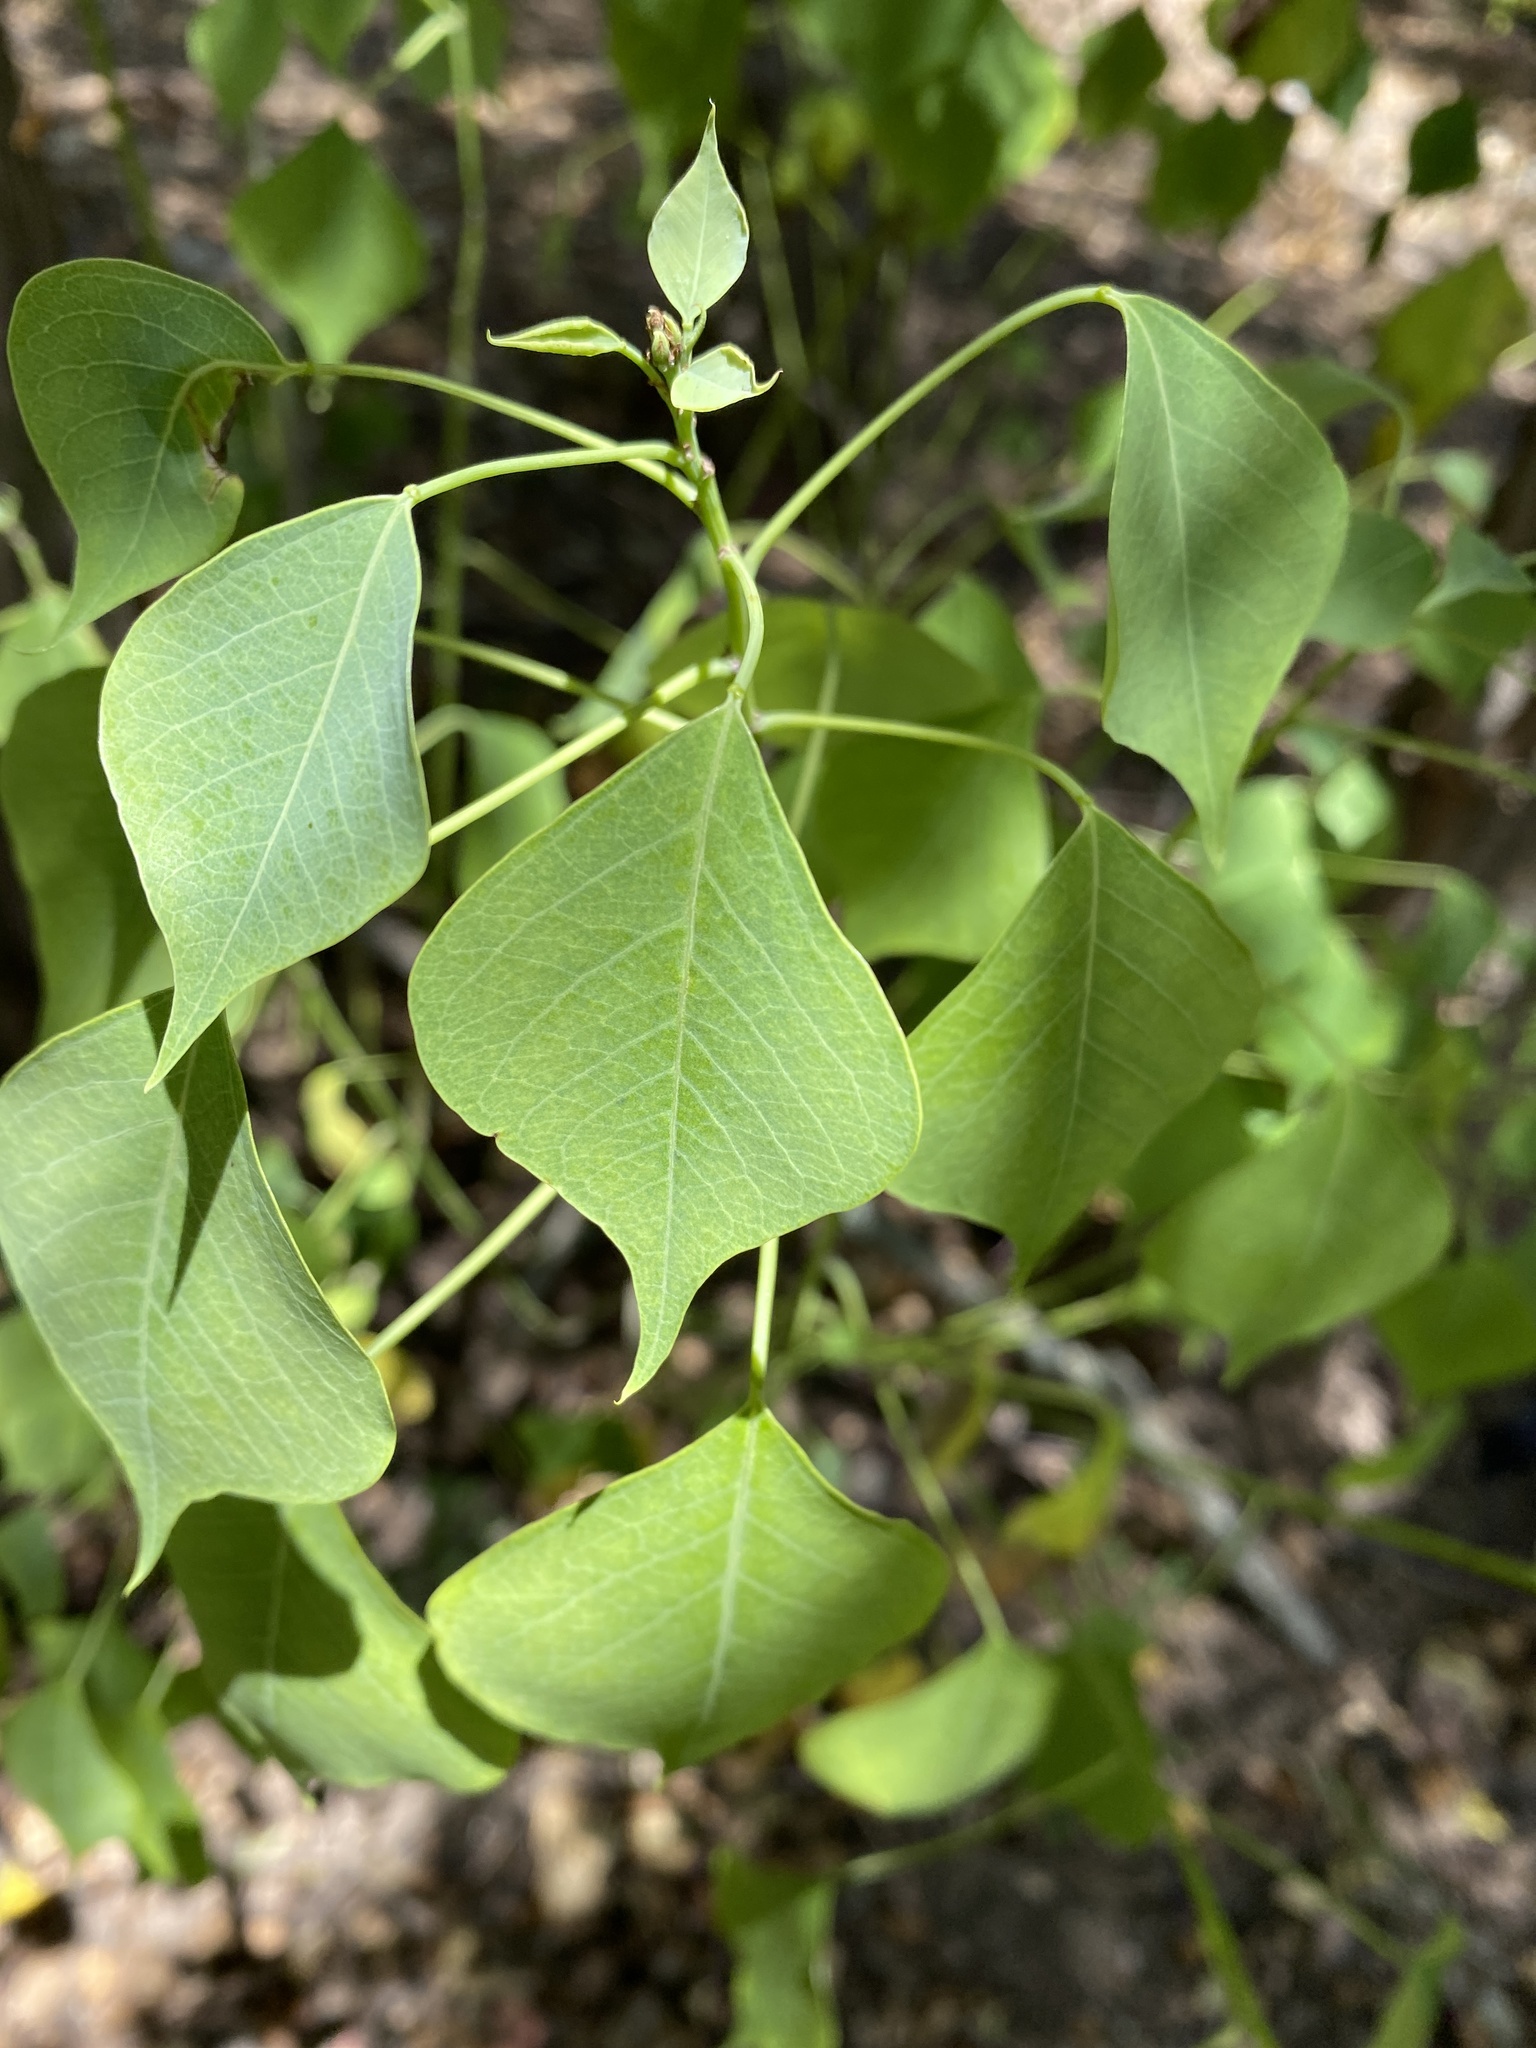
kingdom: Plantae
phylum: Tracheophyta
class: Magnoliopsida
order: Malpighiales
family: Euphorbiaceae
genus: Triadica
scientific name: Triadica sebifera
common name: Chinese tallow
